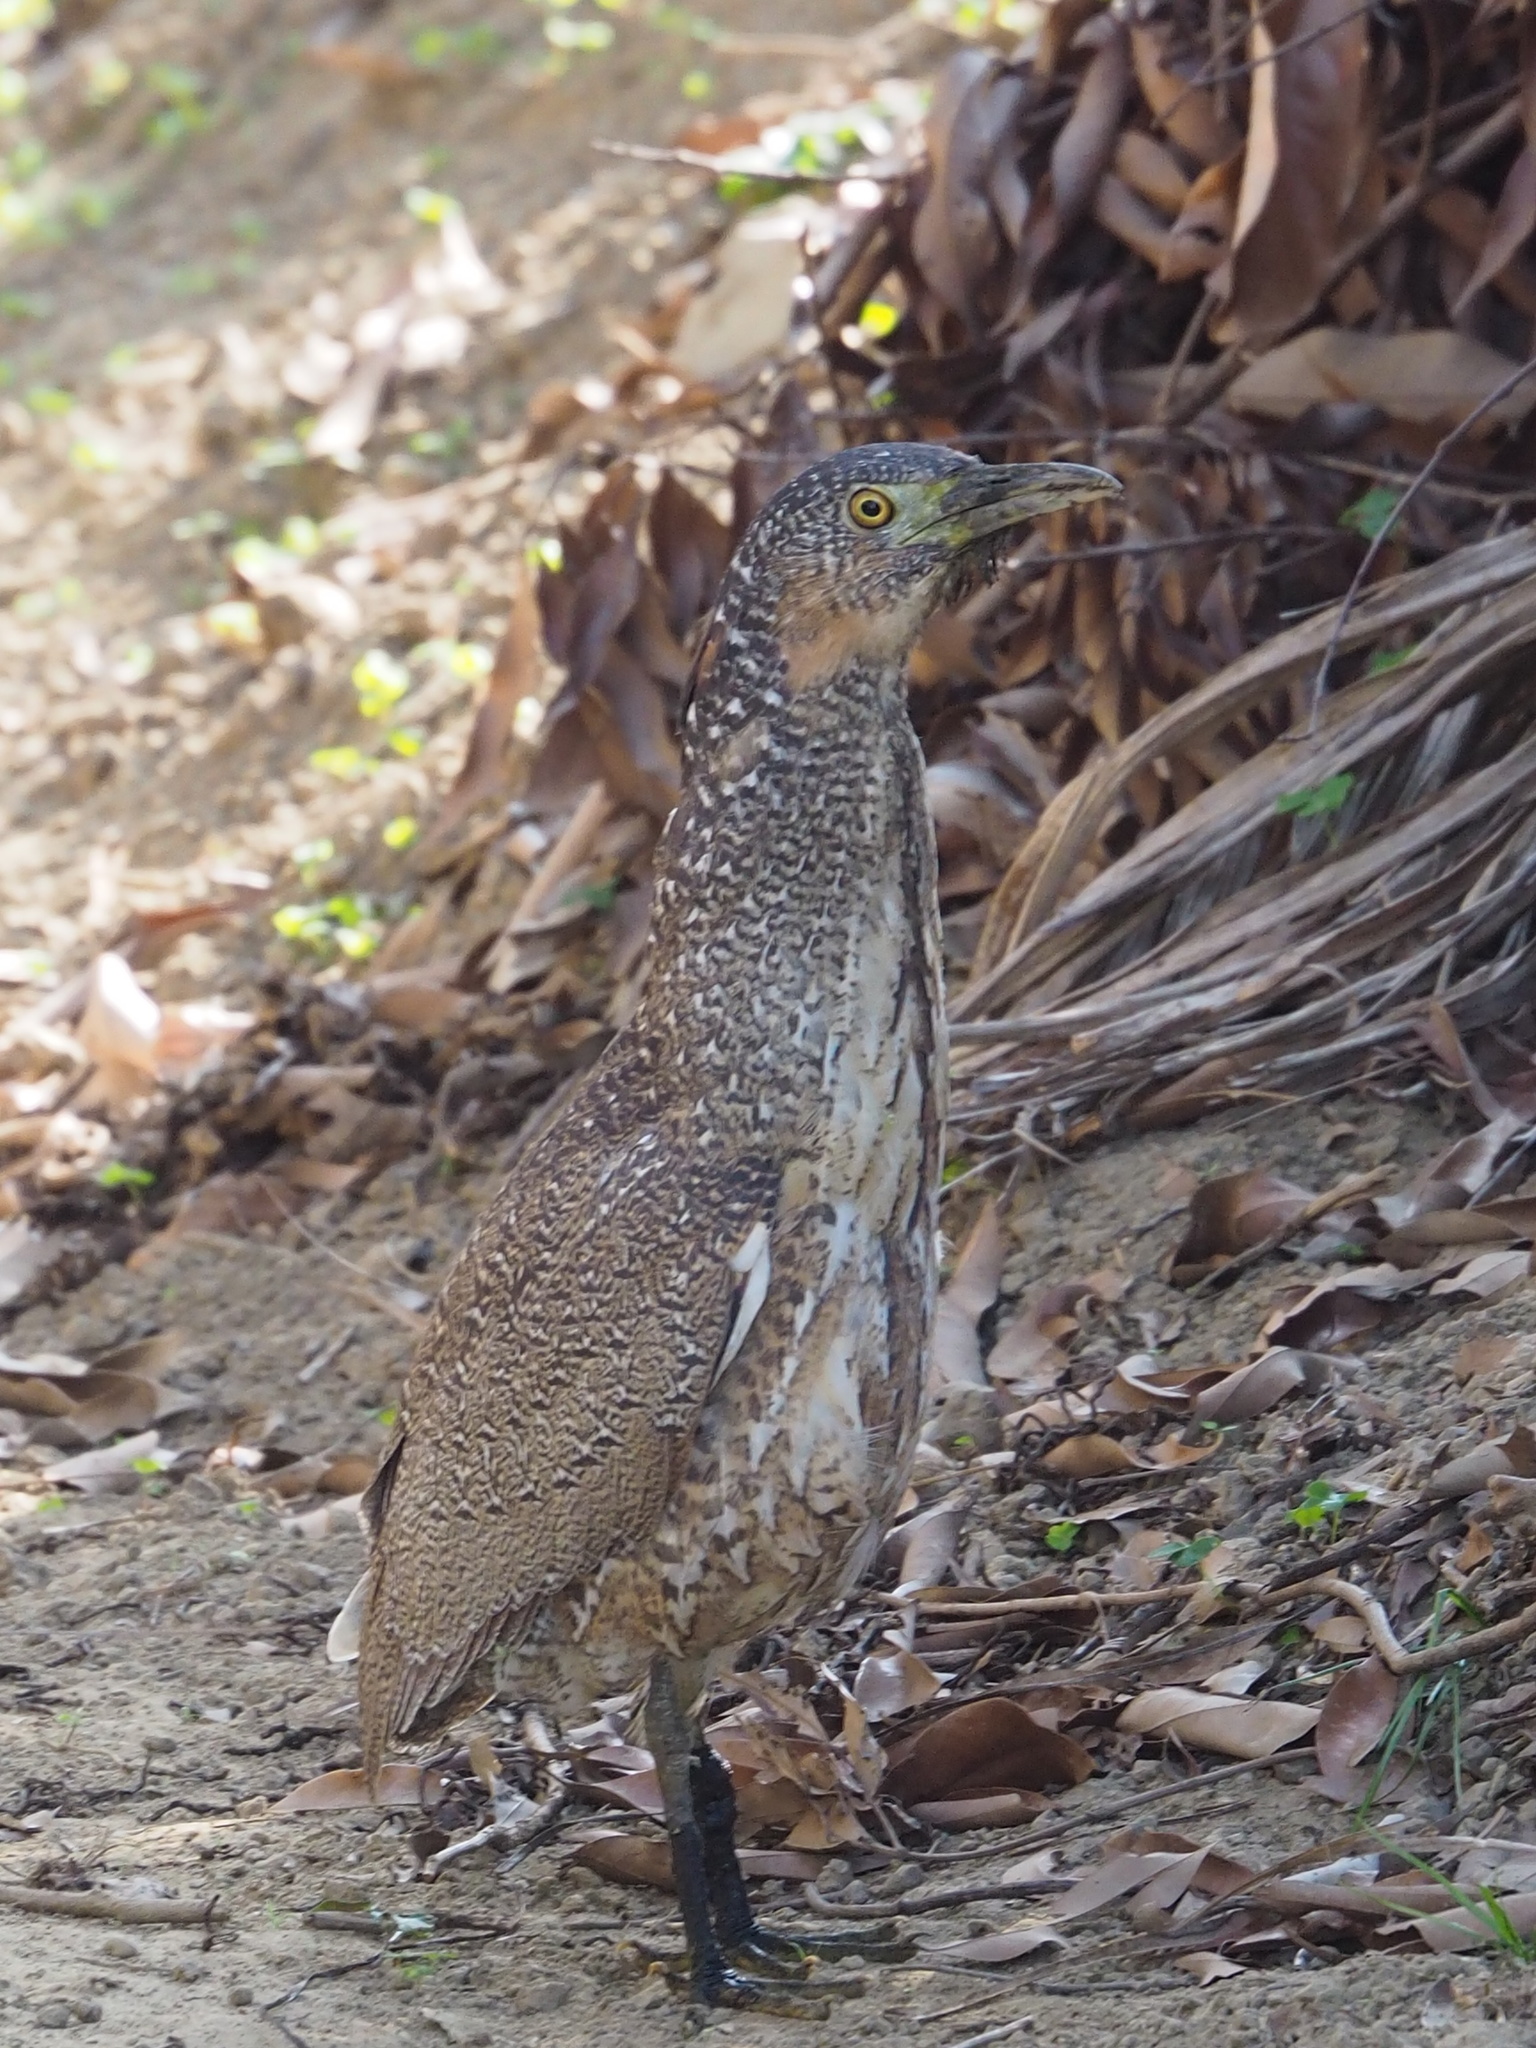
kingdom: Animalia
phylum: Chordata
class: Aves
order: Pelecaniformes
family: Ardeidae
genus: Gorsachius
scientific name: Gorsachius melanolophus
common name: Malayan night heron
